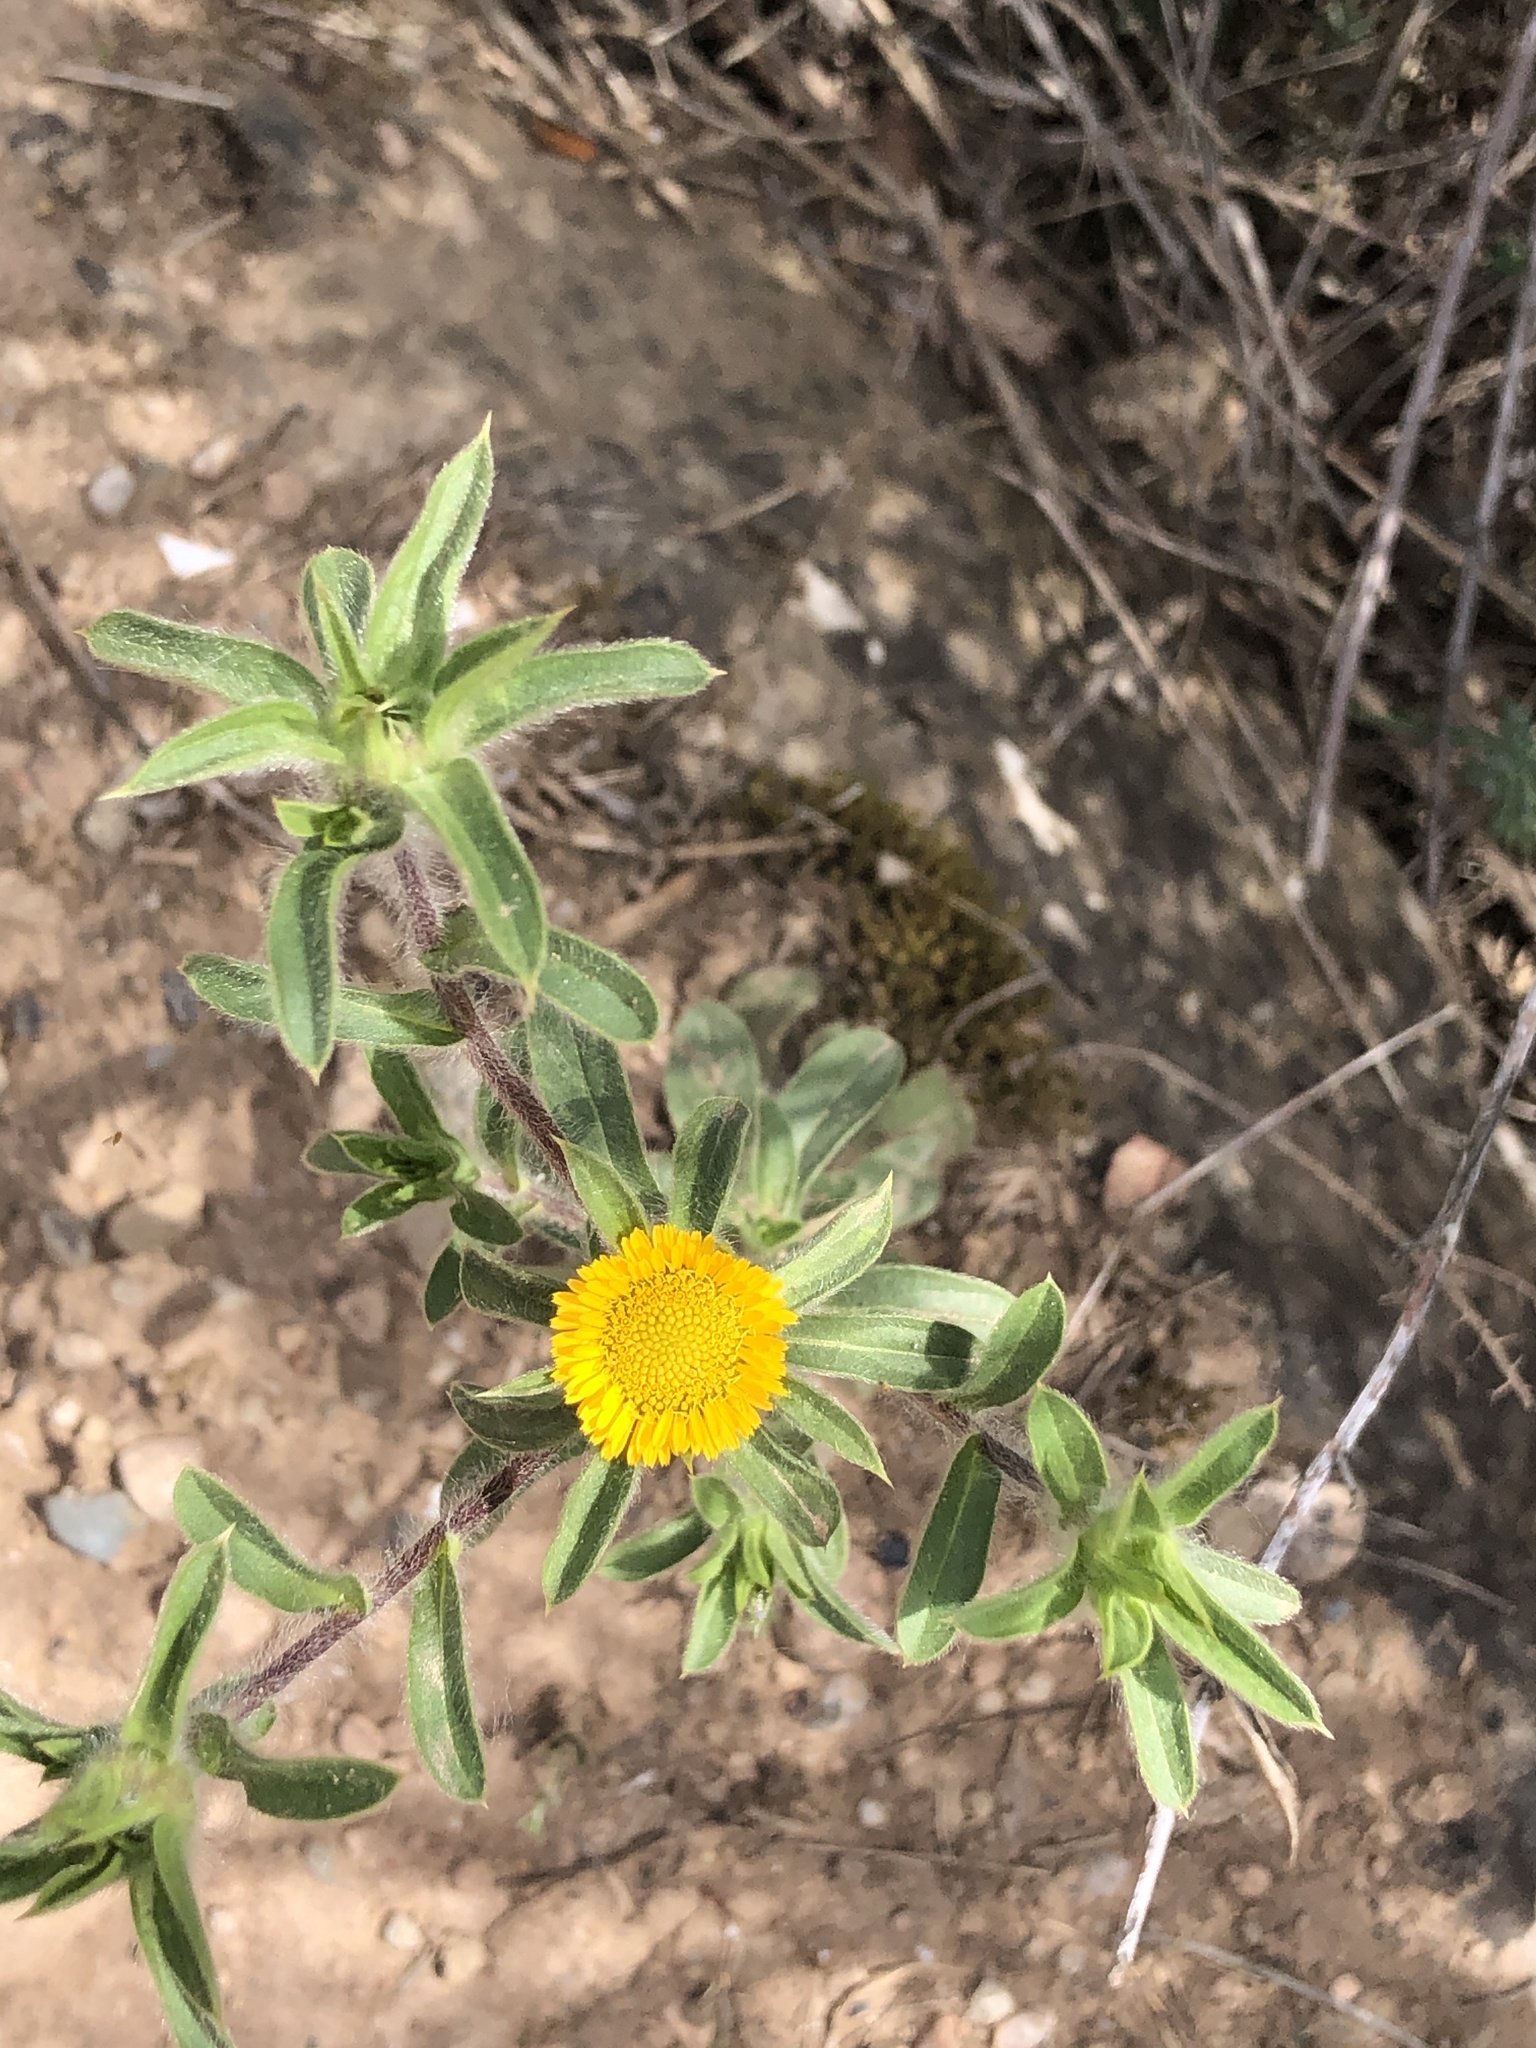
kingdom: Plantae
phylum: Tracheophyta
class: Magnoliopsida
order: Asterales
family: Asteraceae
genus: Pallenis
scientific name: Pallenis spinosa
